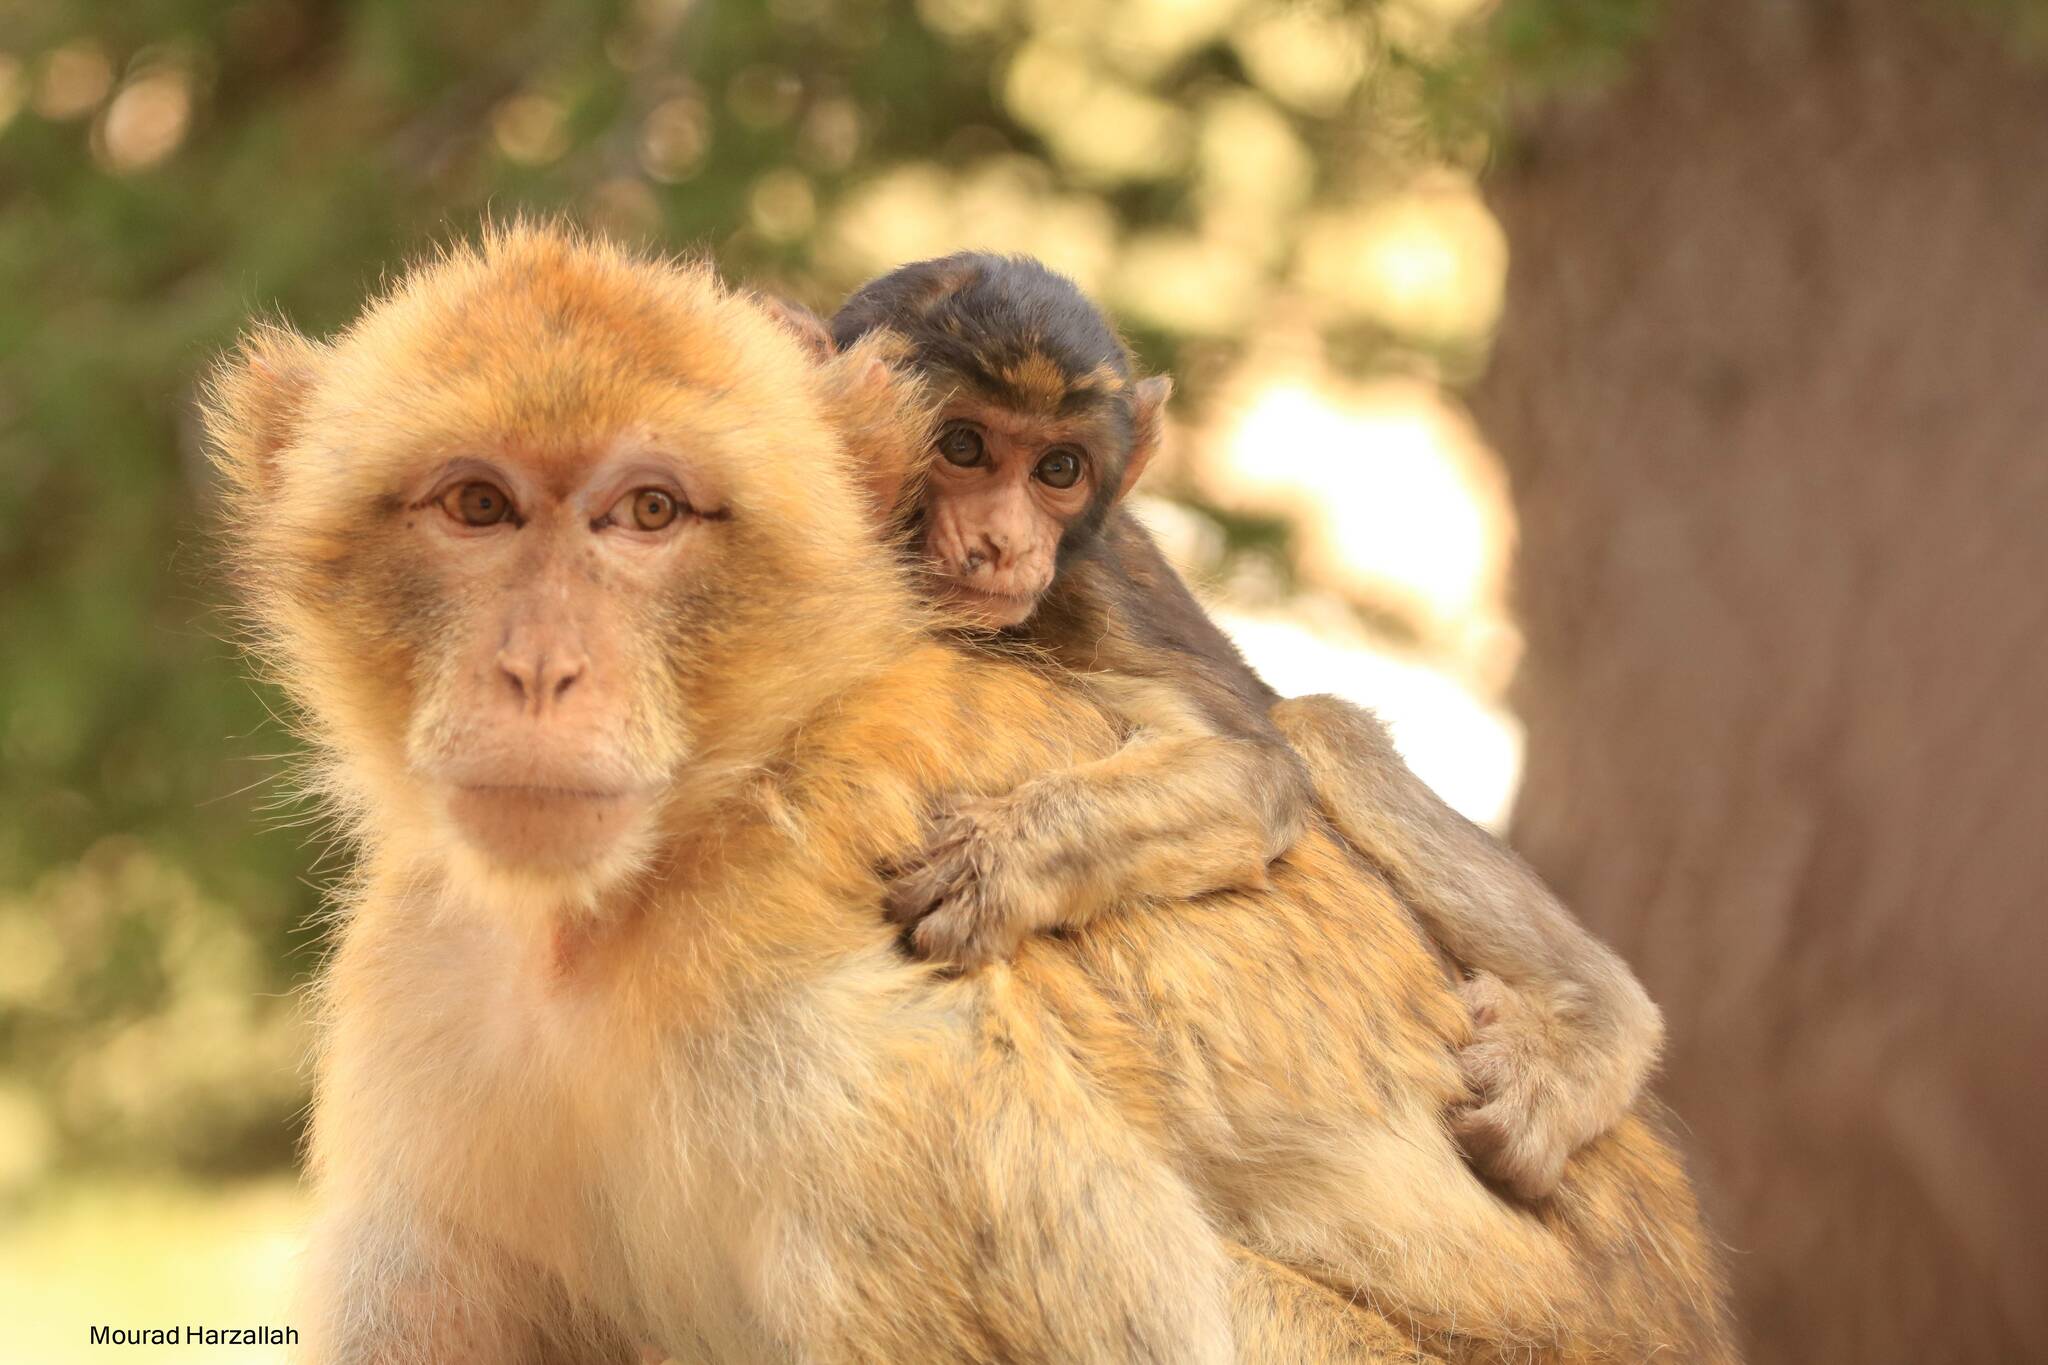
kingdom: Animalia
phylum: Chordata
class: Mammalia
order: Primates
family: Cercopithecidae
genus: Macaca
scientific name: Macaca sylvanus
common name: Barbary macaque
